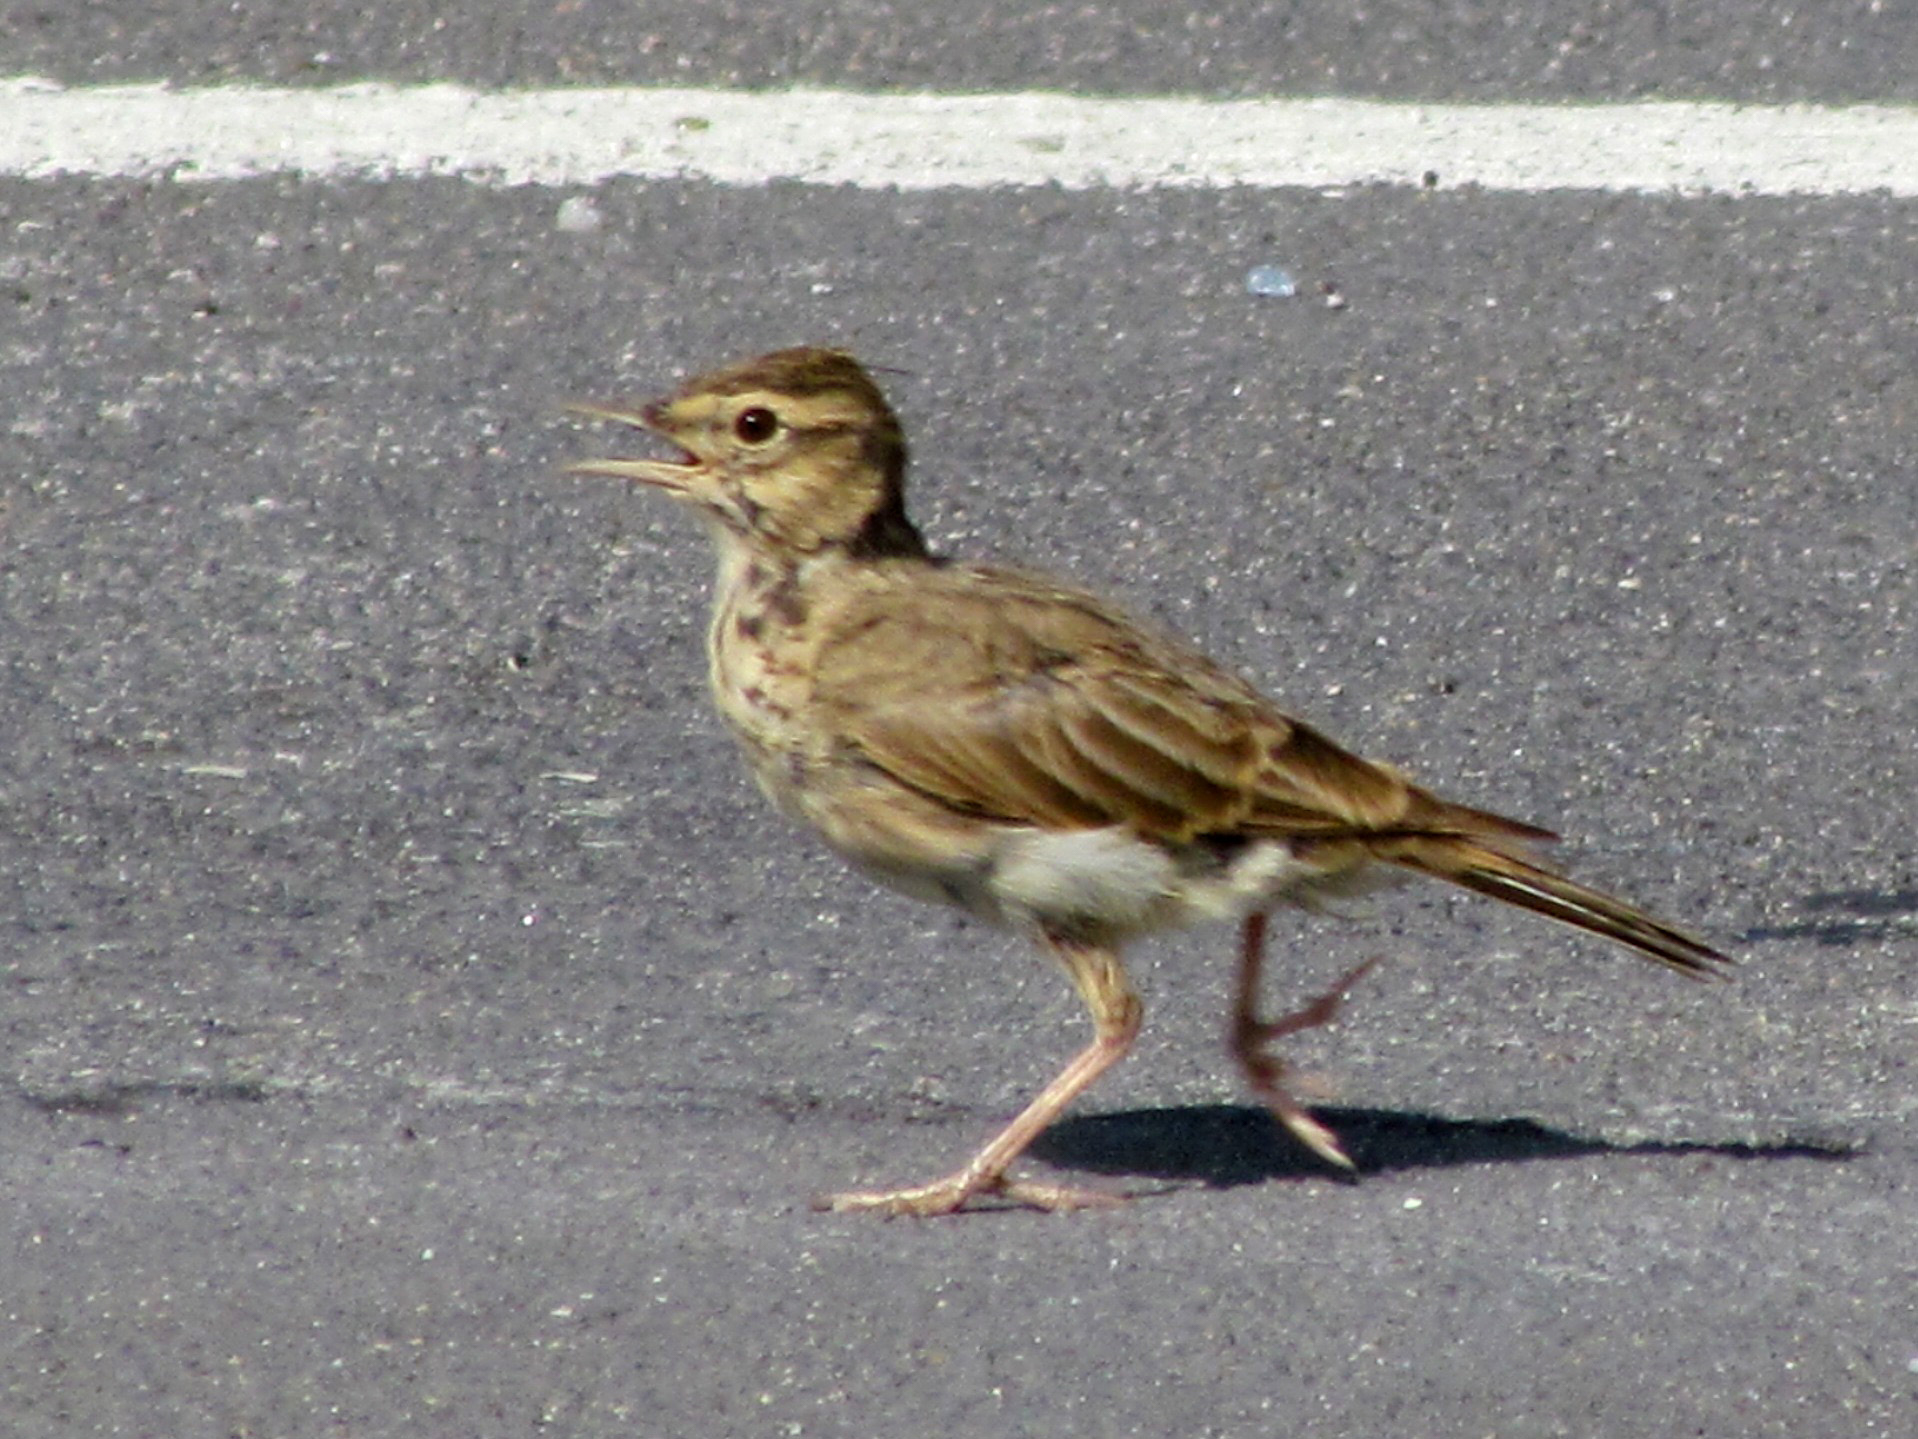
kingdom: Animalia
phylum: Chordata
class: Aves
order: Passeriformes
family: Alaudidae
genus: Galerida
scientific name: Galerida cristata
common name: Crested lark
